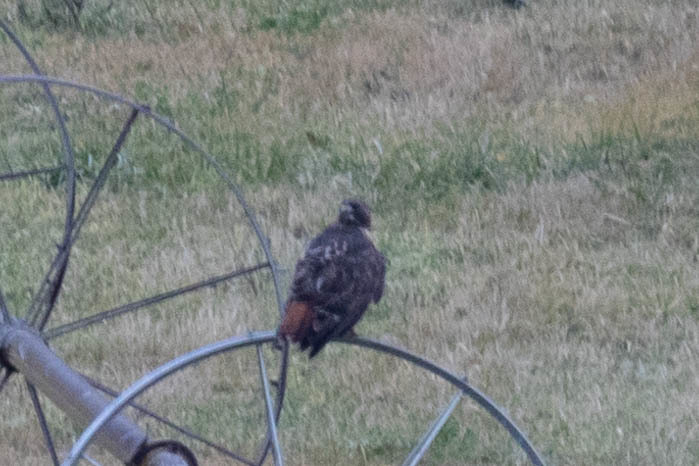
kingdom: Animalia
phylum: Chordata
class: Aves
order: Accipitriformes
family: Accipitridae
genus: Buteo
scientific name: Buteo jamaicensis
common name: Red-tailed hawk
